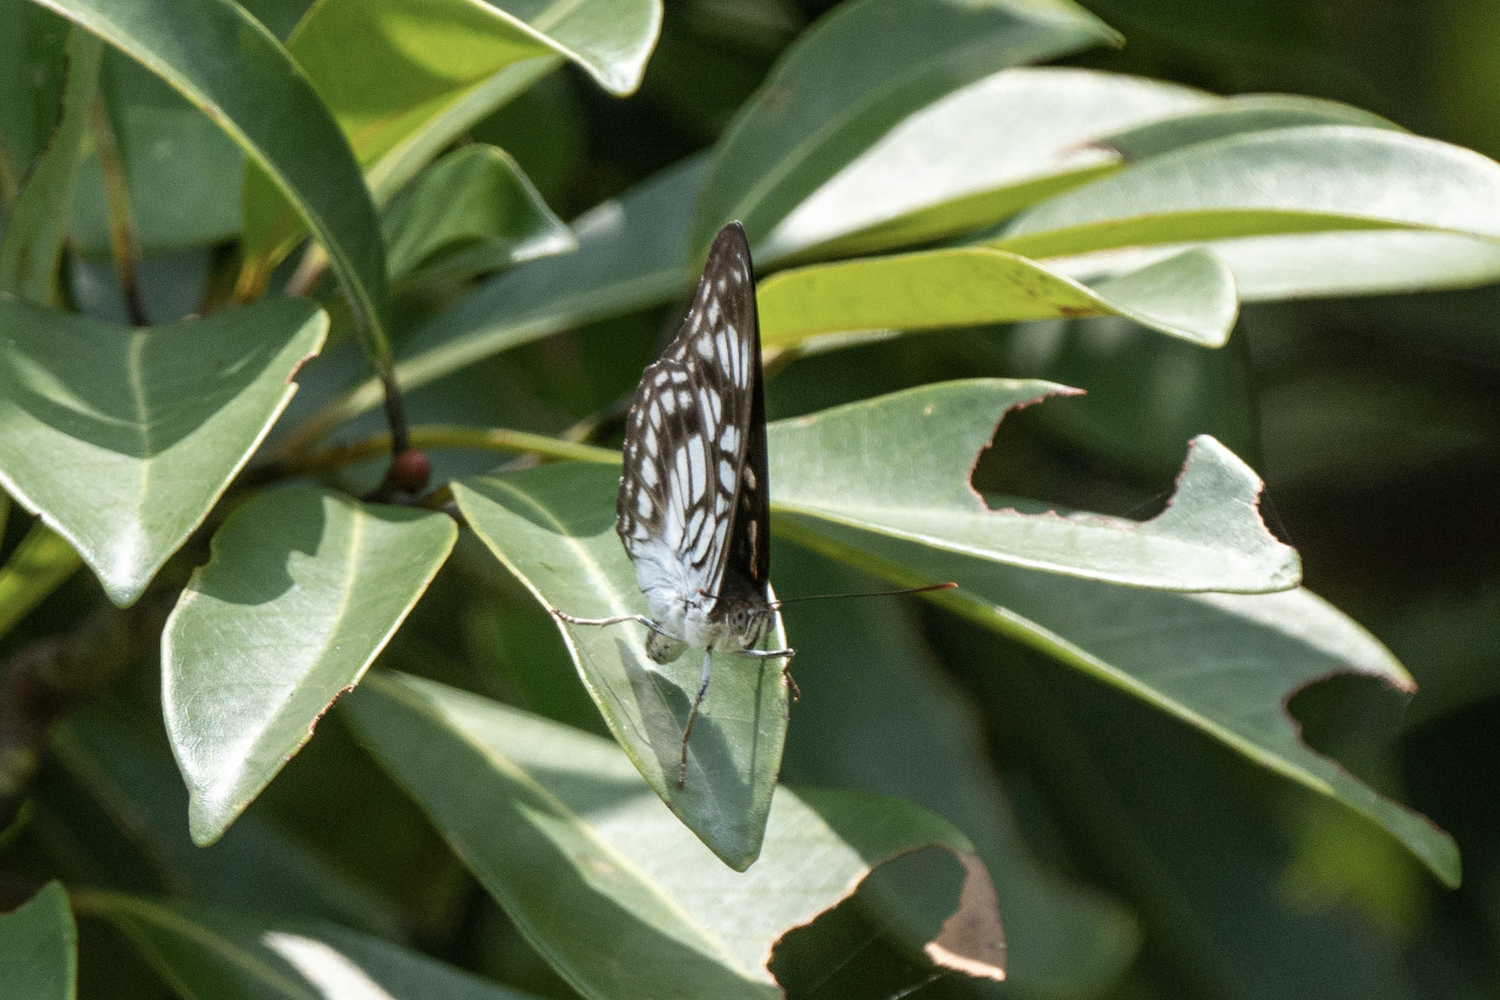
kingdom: Animalia
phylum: Arthropoda
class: Insecta
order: Lepidoptera
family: Nymphalidae
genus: Parathyma
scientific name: Parathyma ranga
